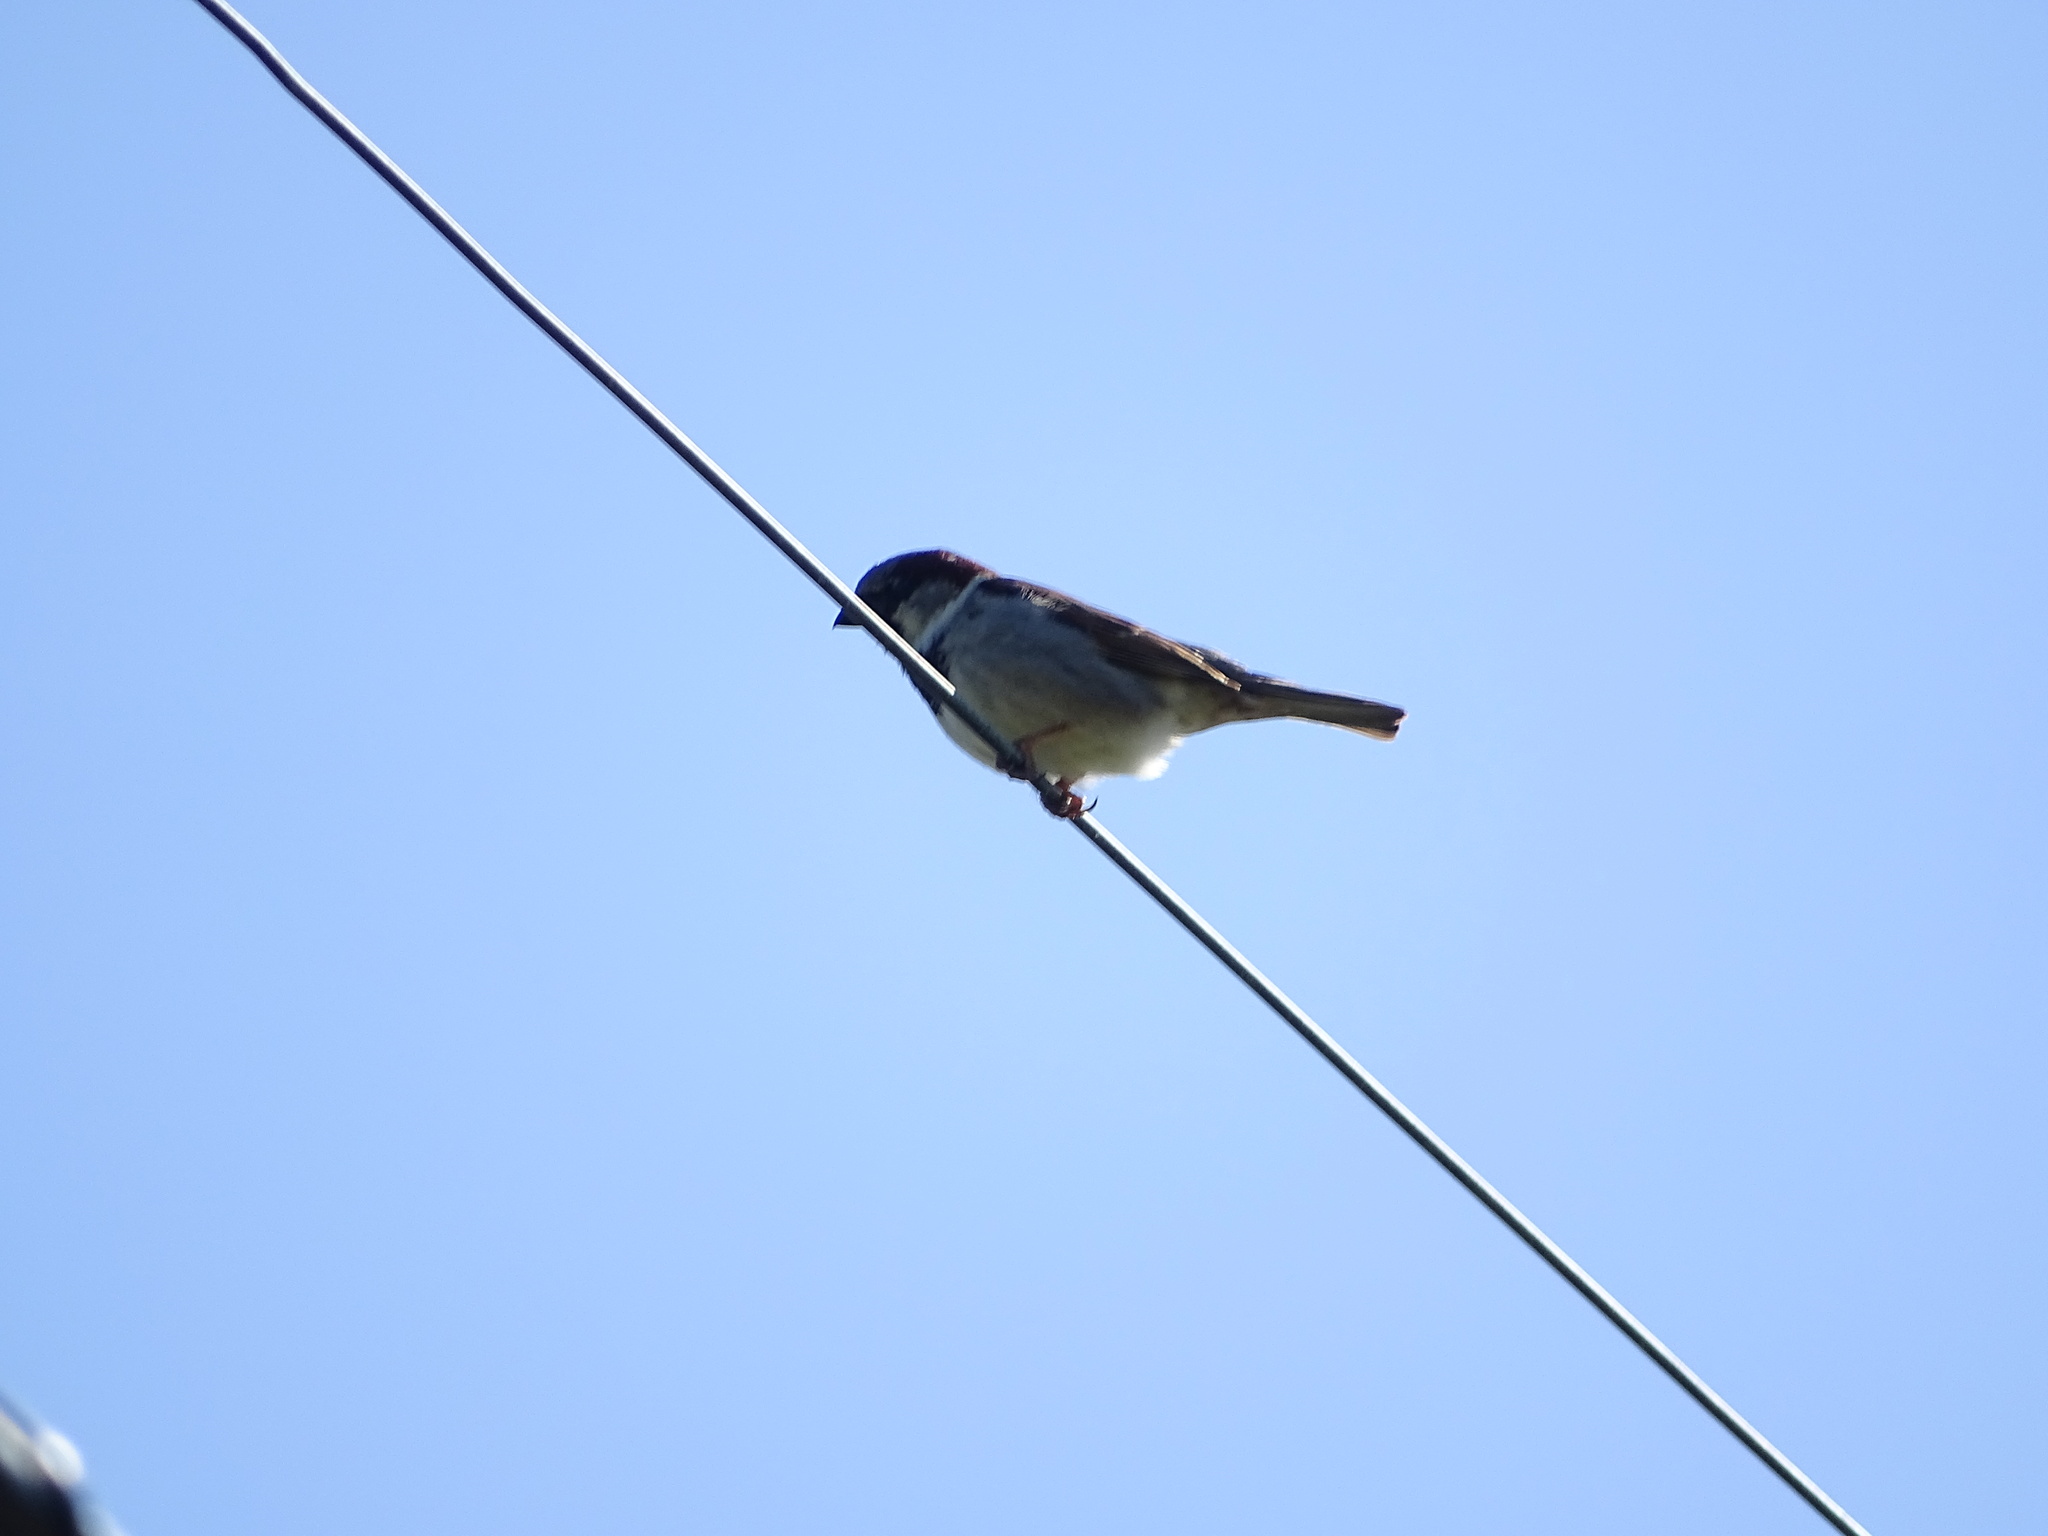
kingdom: Animalia
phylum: Chordata
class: Aves
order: Passeriformes
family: Passeridae
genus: Passer
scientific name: Passer domesticus
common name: House sparrow
